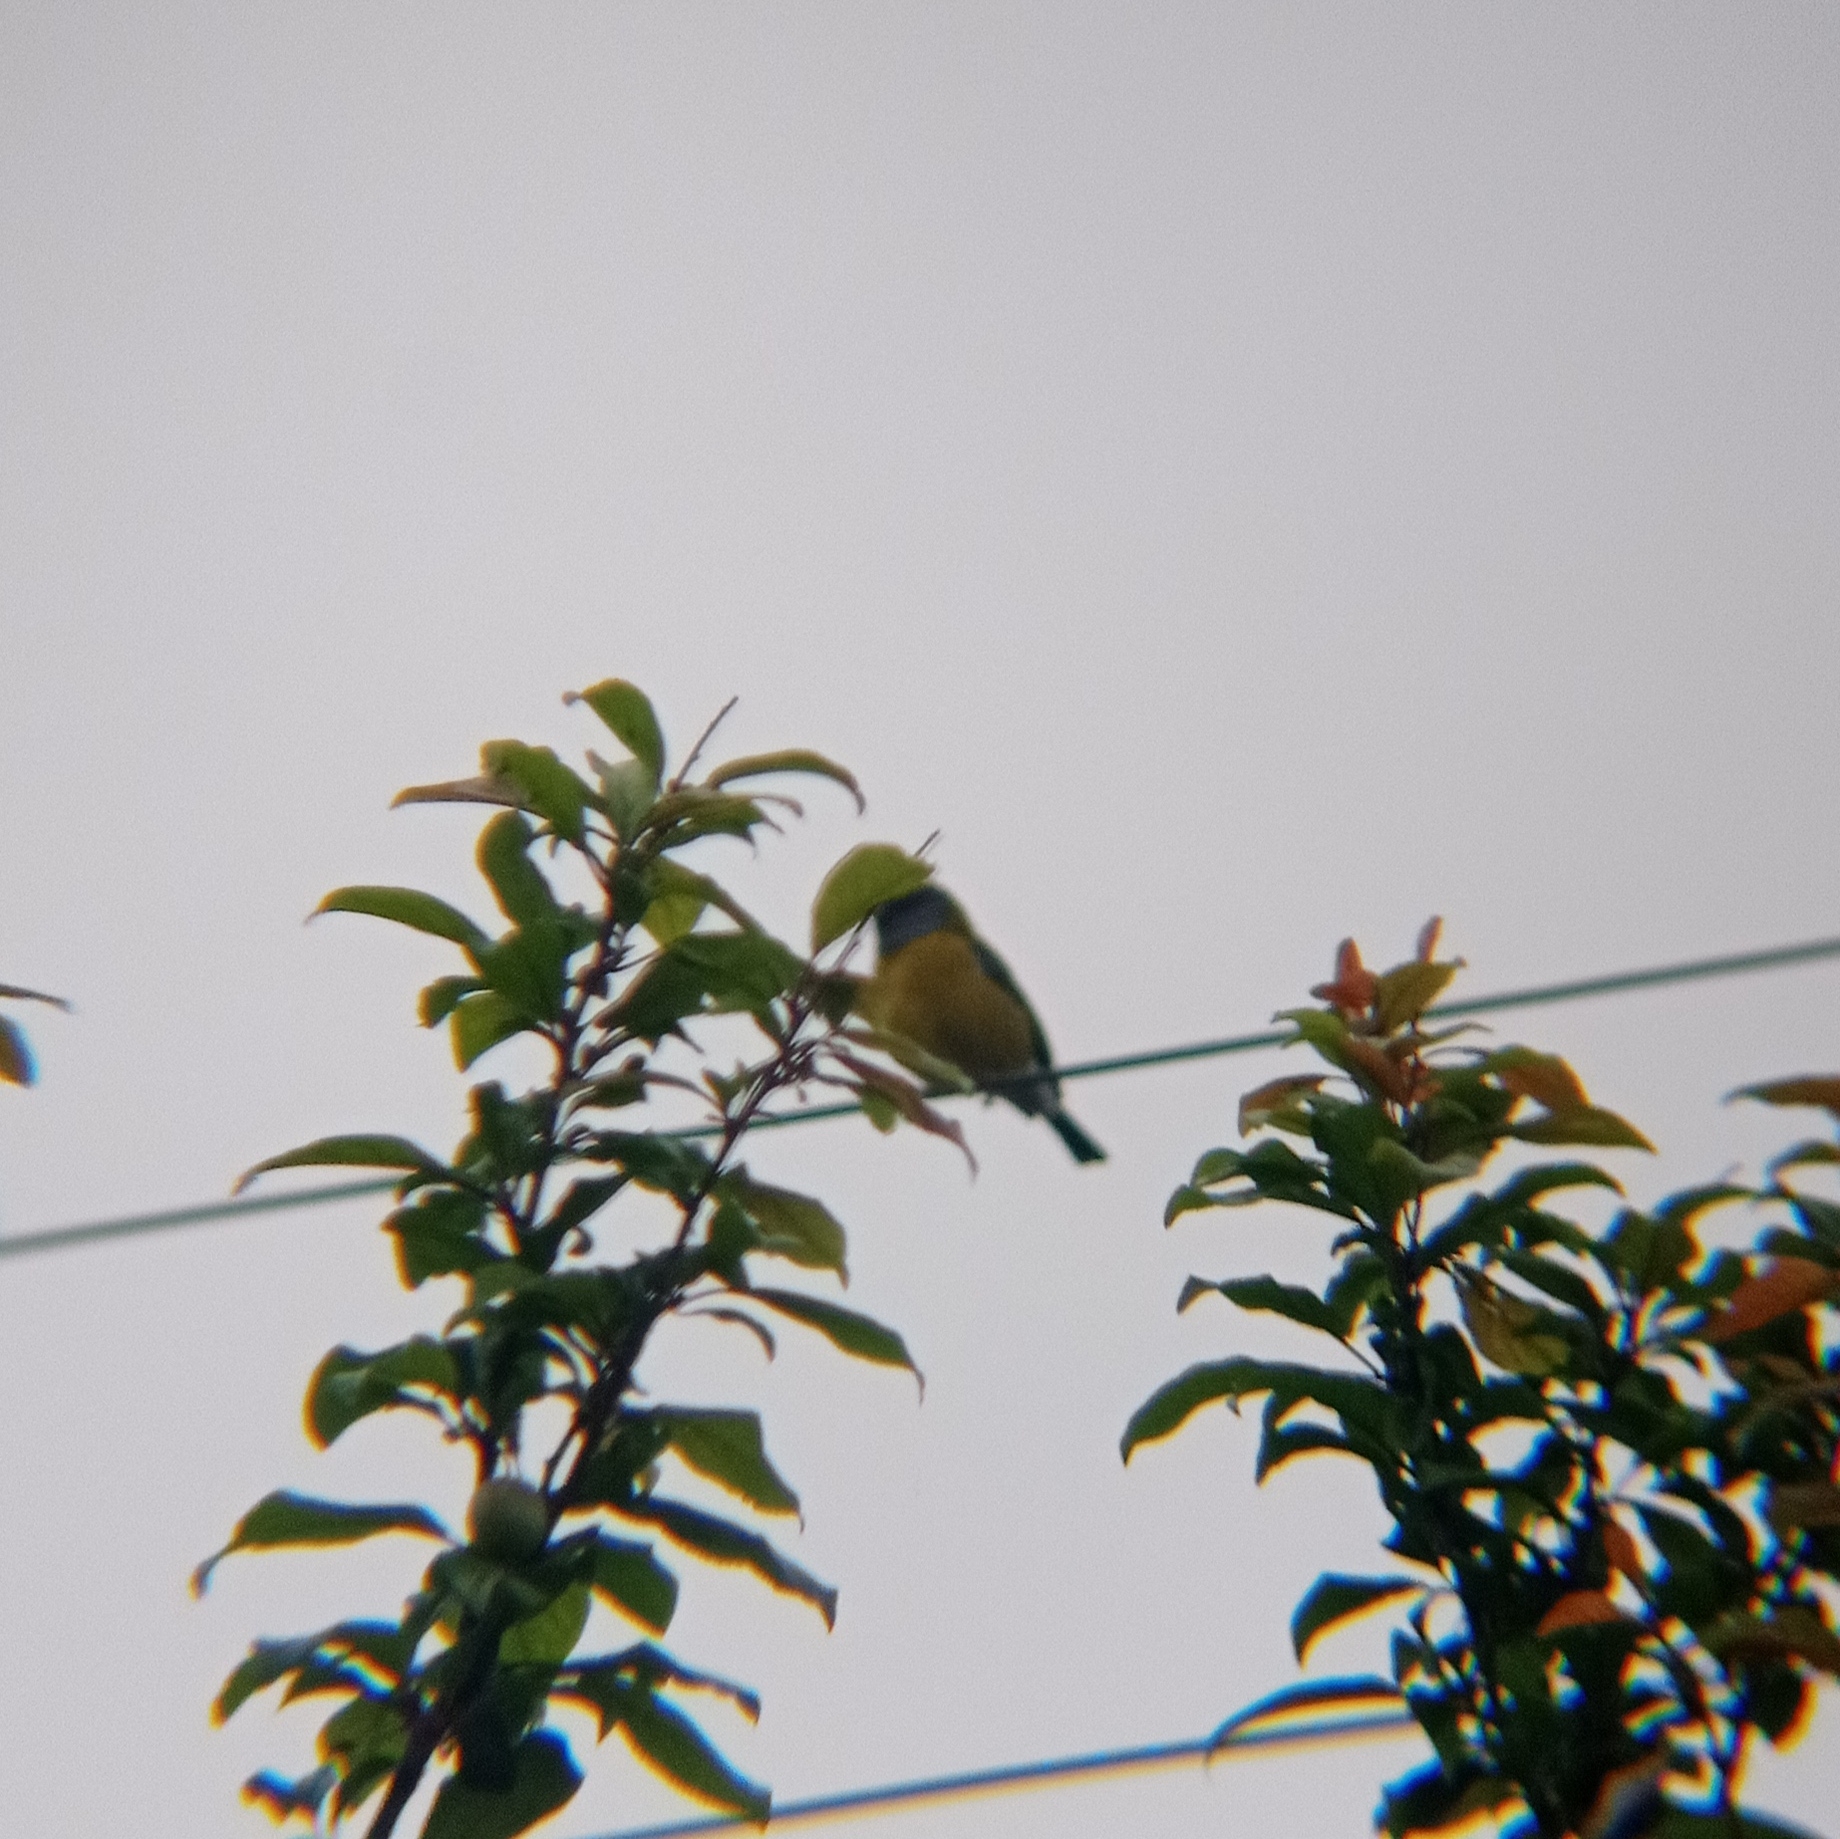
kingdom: Animalia
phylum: Chordata
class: Aves
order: Passeriformes
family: Thraupidae
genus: Phrygilus
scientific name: Phrygilus gayi
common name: Grey-hooded sierra finch
